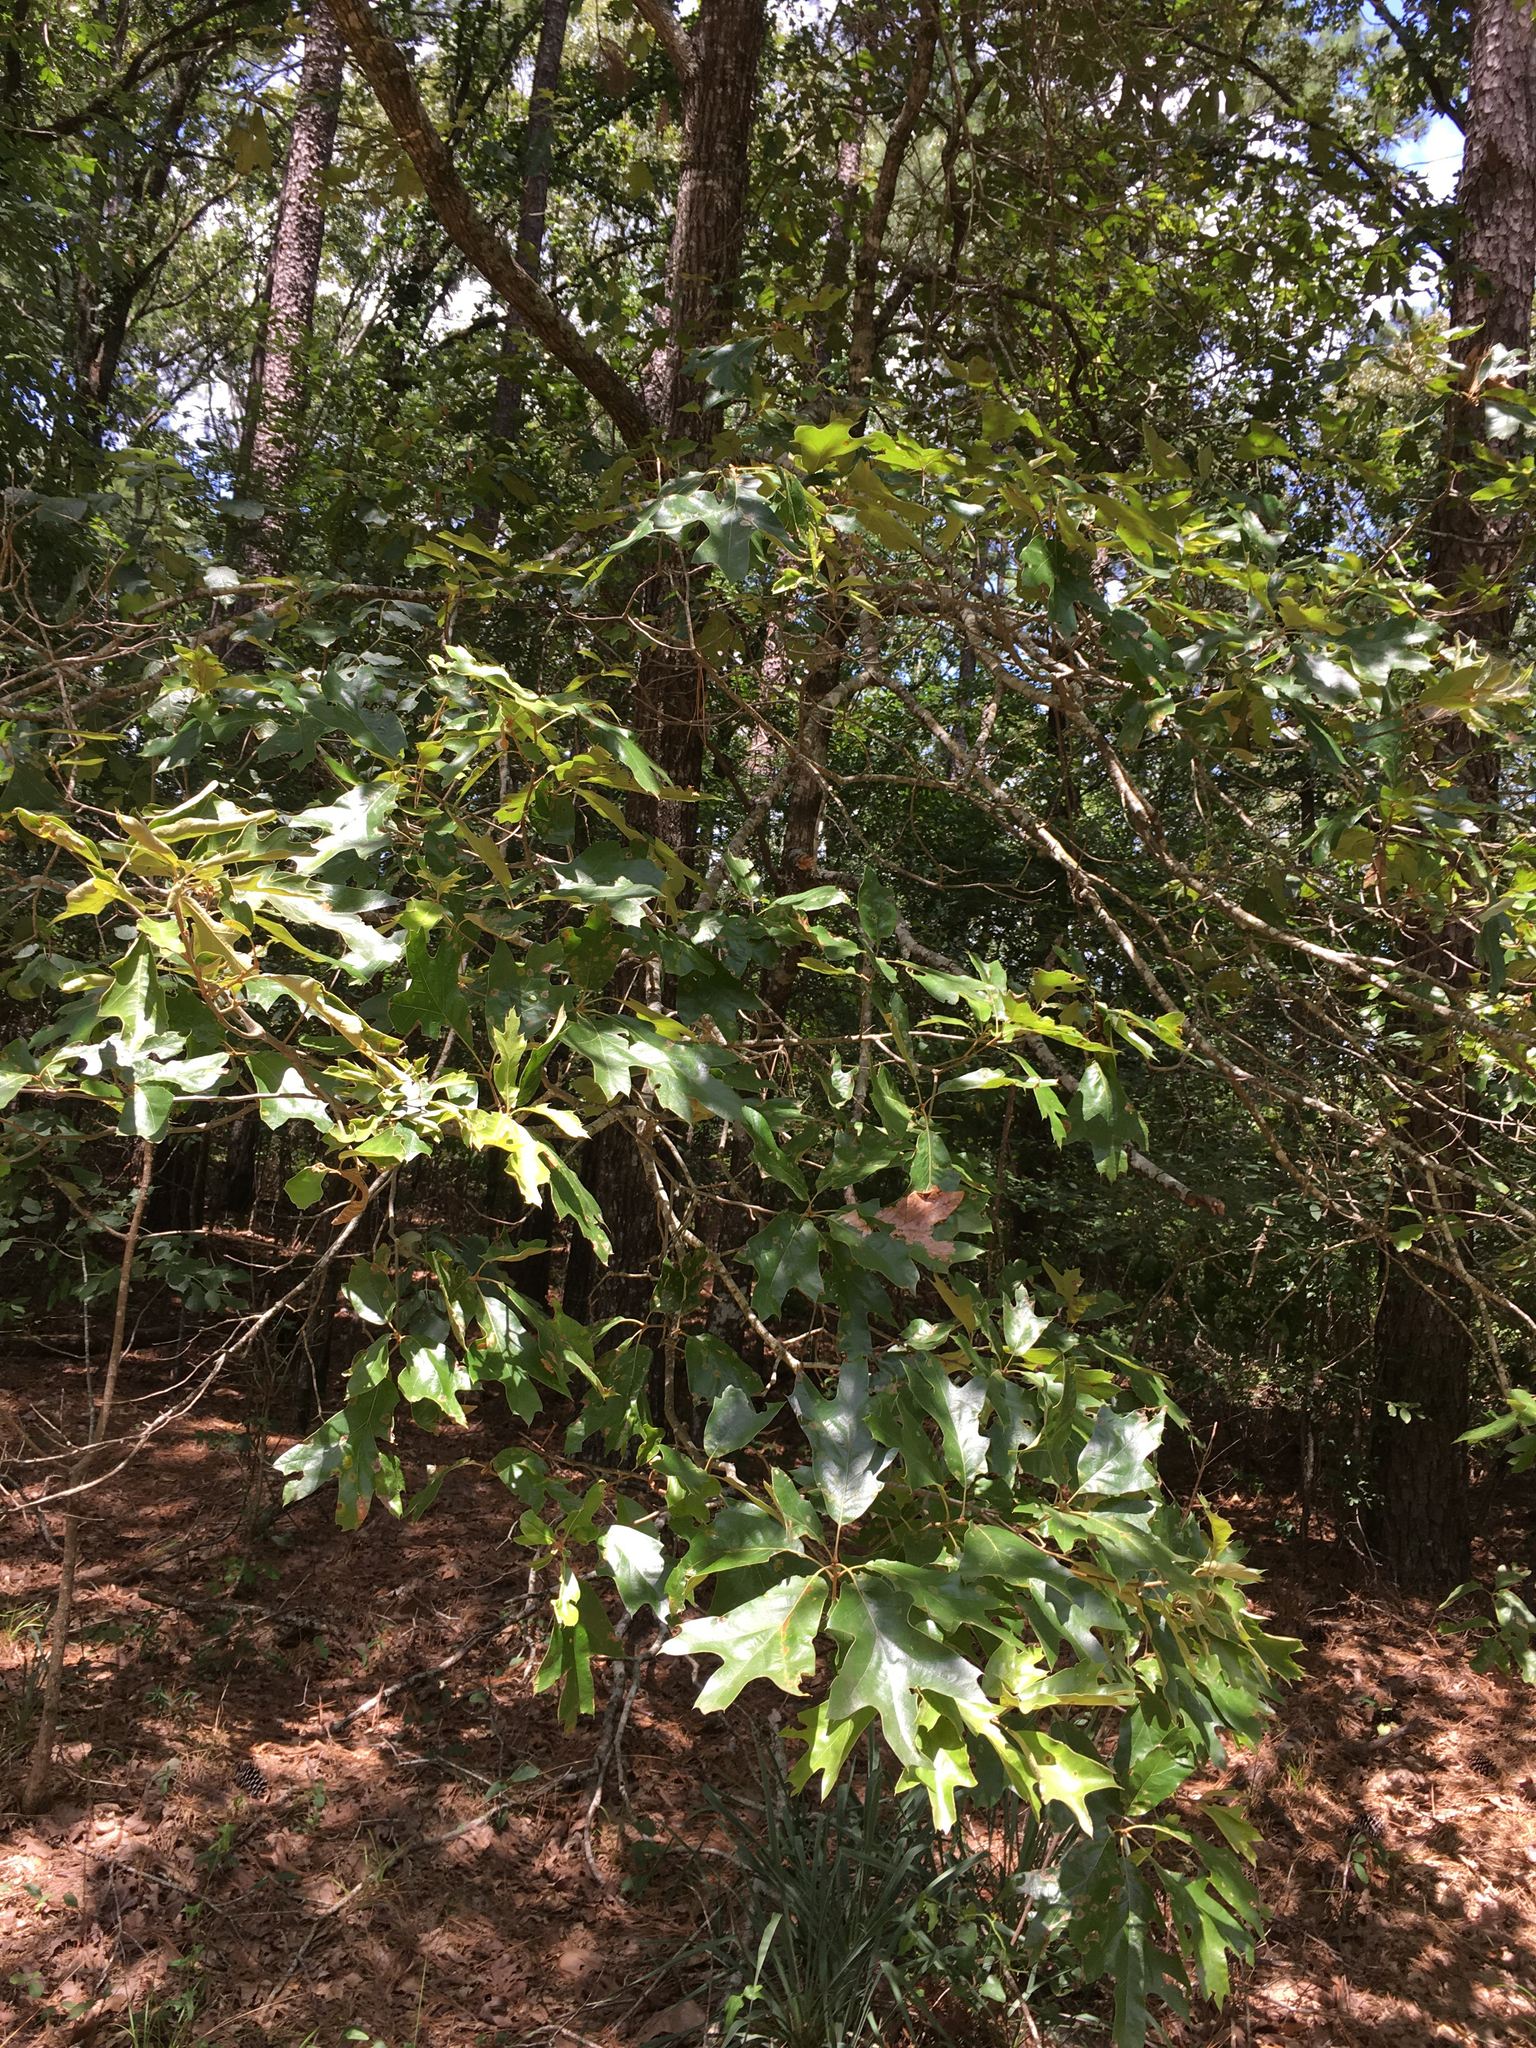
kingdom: Plantae
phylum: Tracheophyta
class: Magnoliopsida
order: Fagales
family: Fagaceae
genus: Quercus
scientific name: Quercus falcata
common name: Southern red oak
